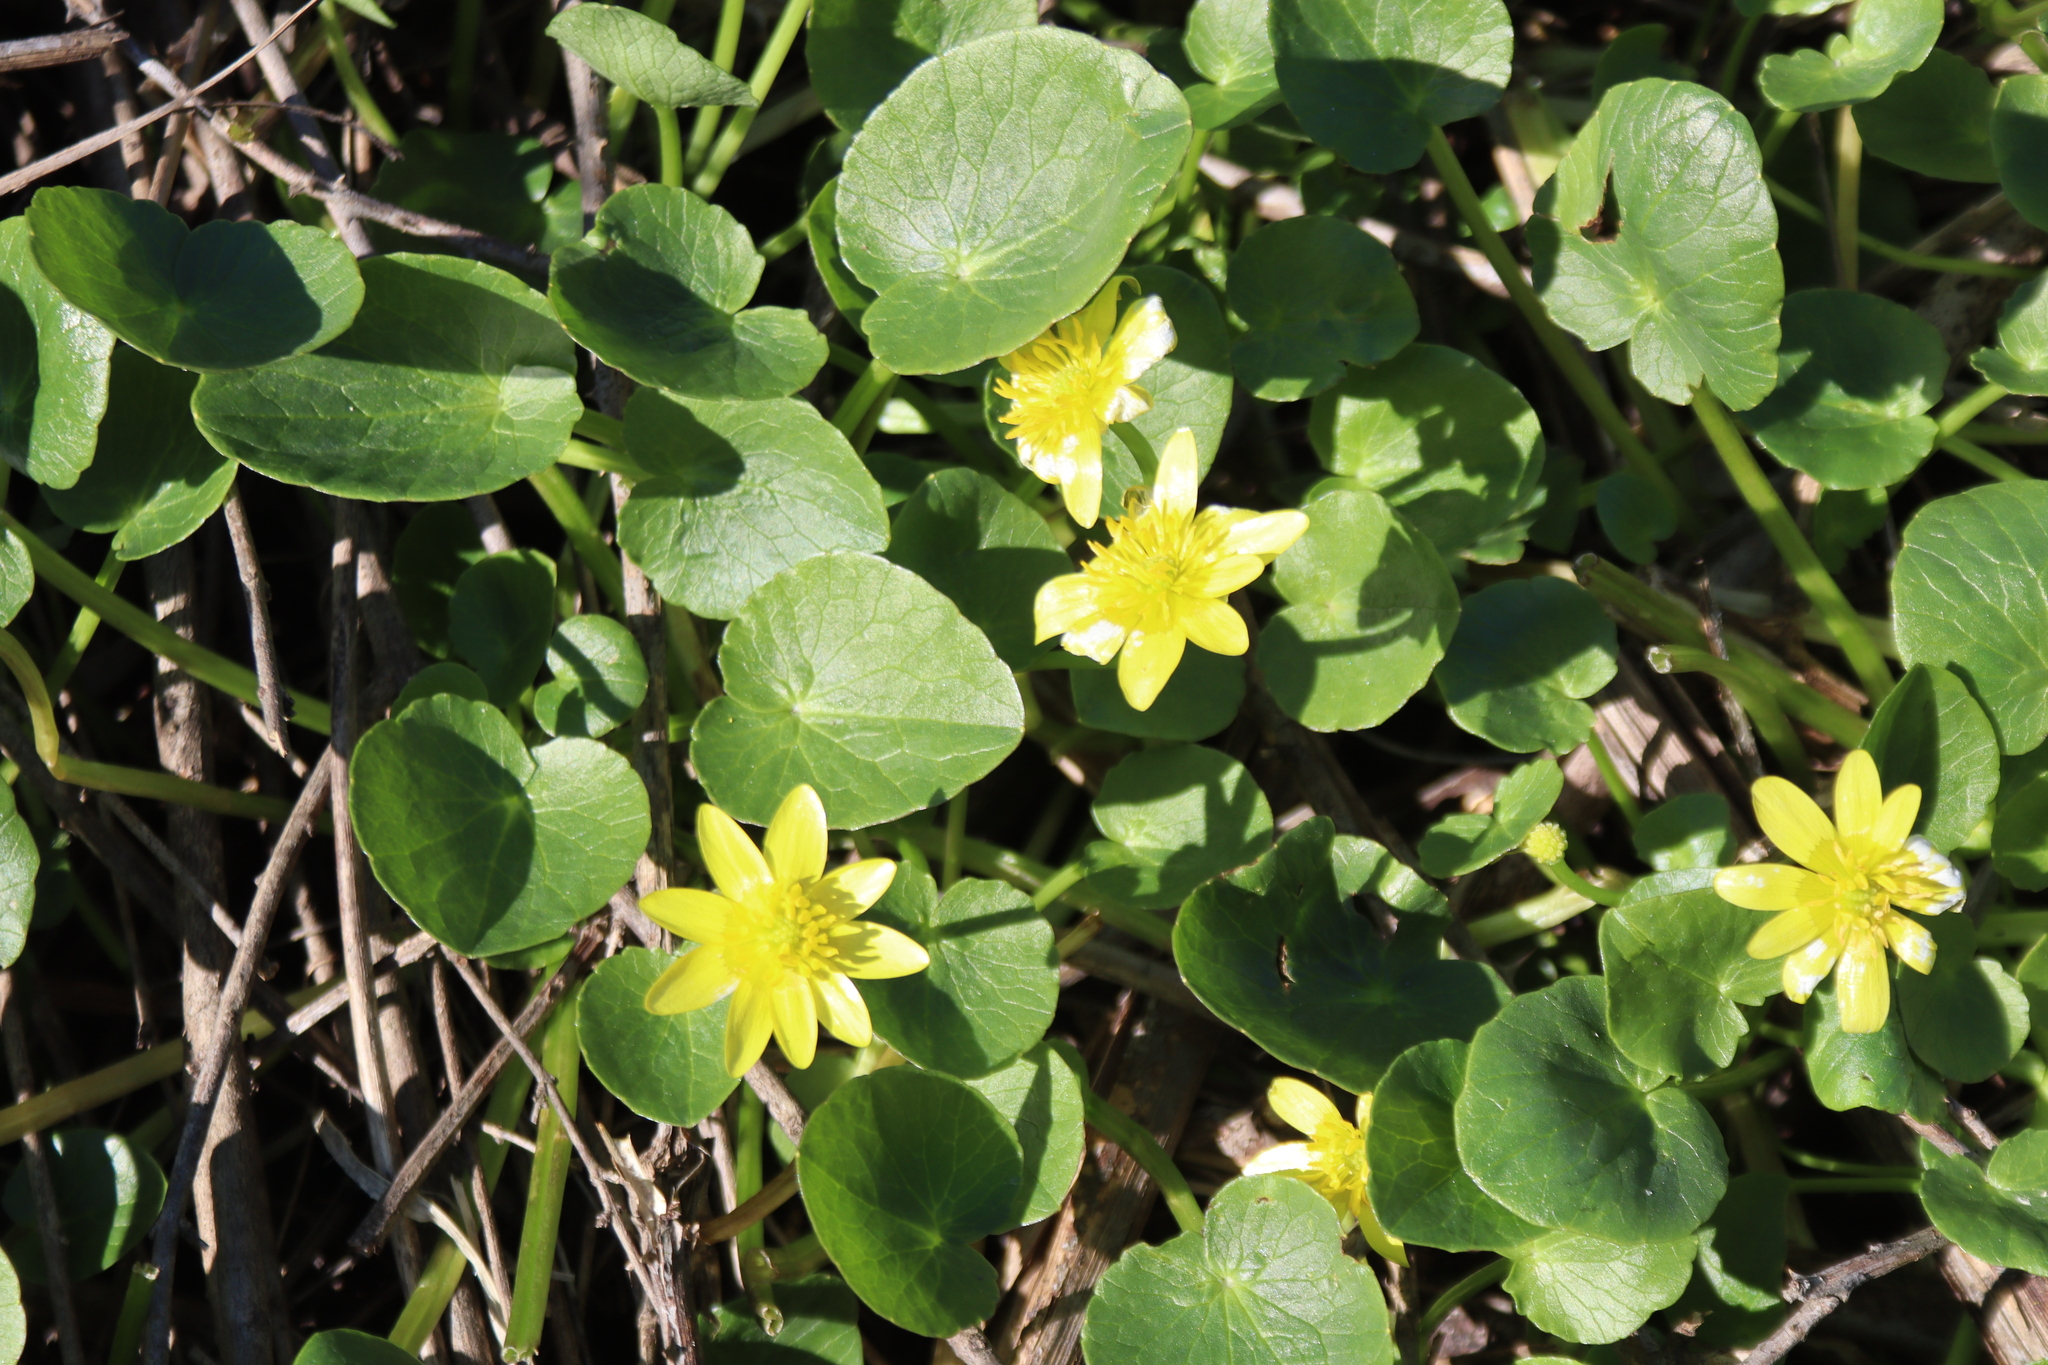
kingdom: Plantae
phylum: Tracheophyta
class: Magnoliopsida
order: Ranunculales
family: Ranunculaceae
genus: Ficaria
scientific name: Ficaria verna
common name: Lesser celandine
